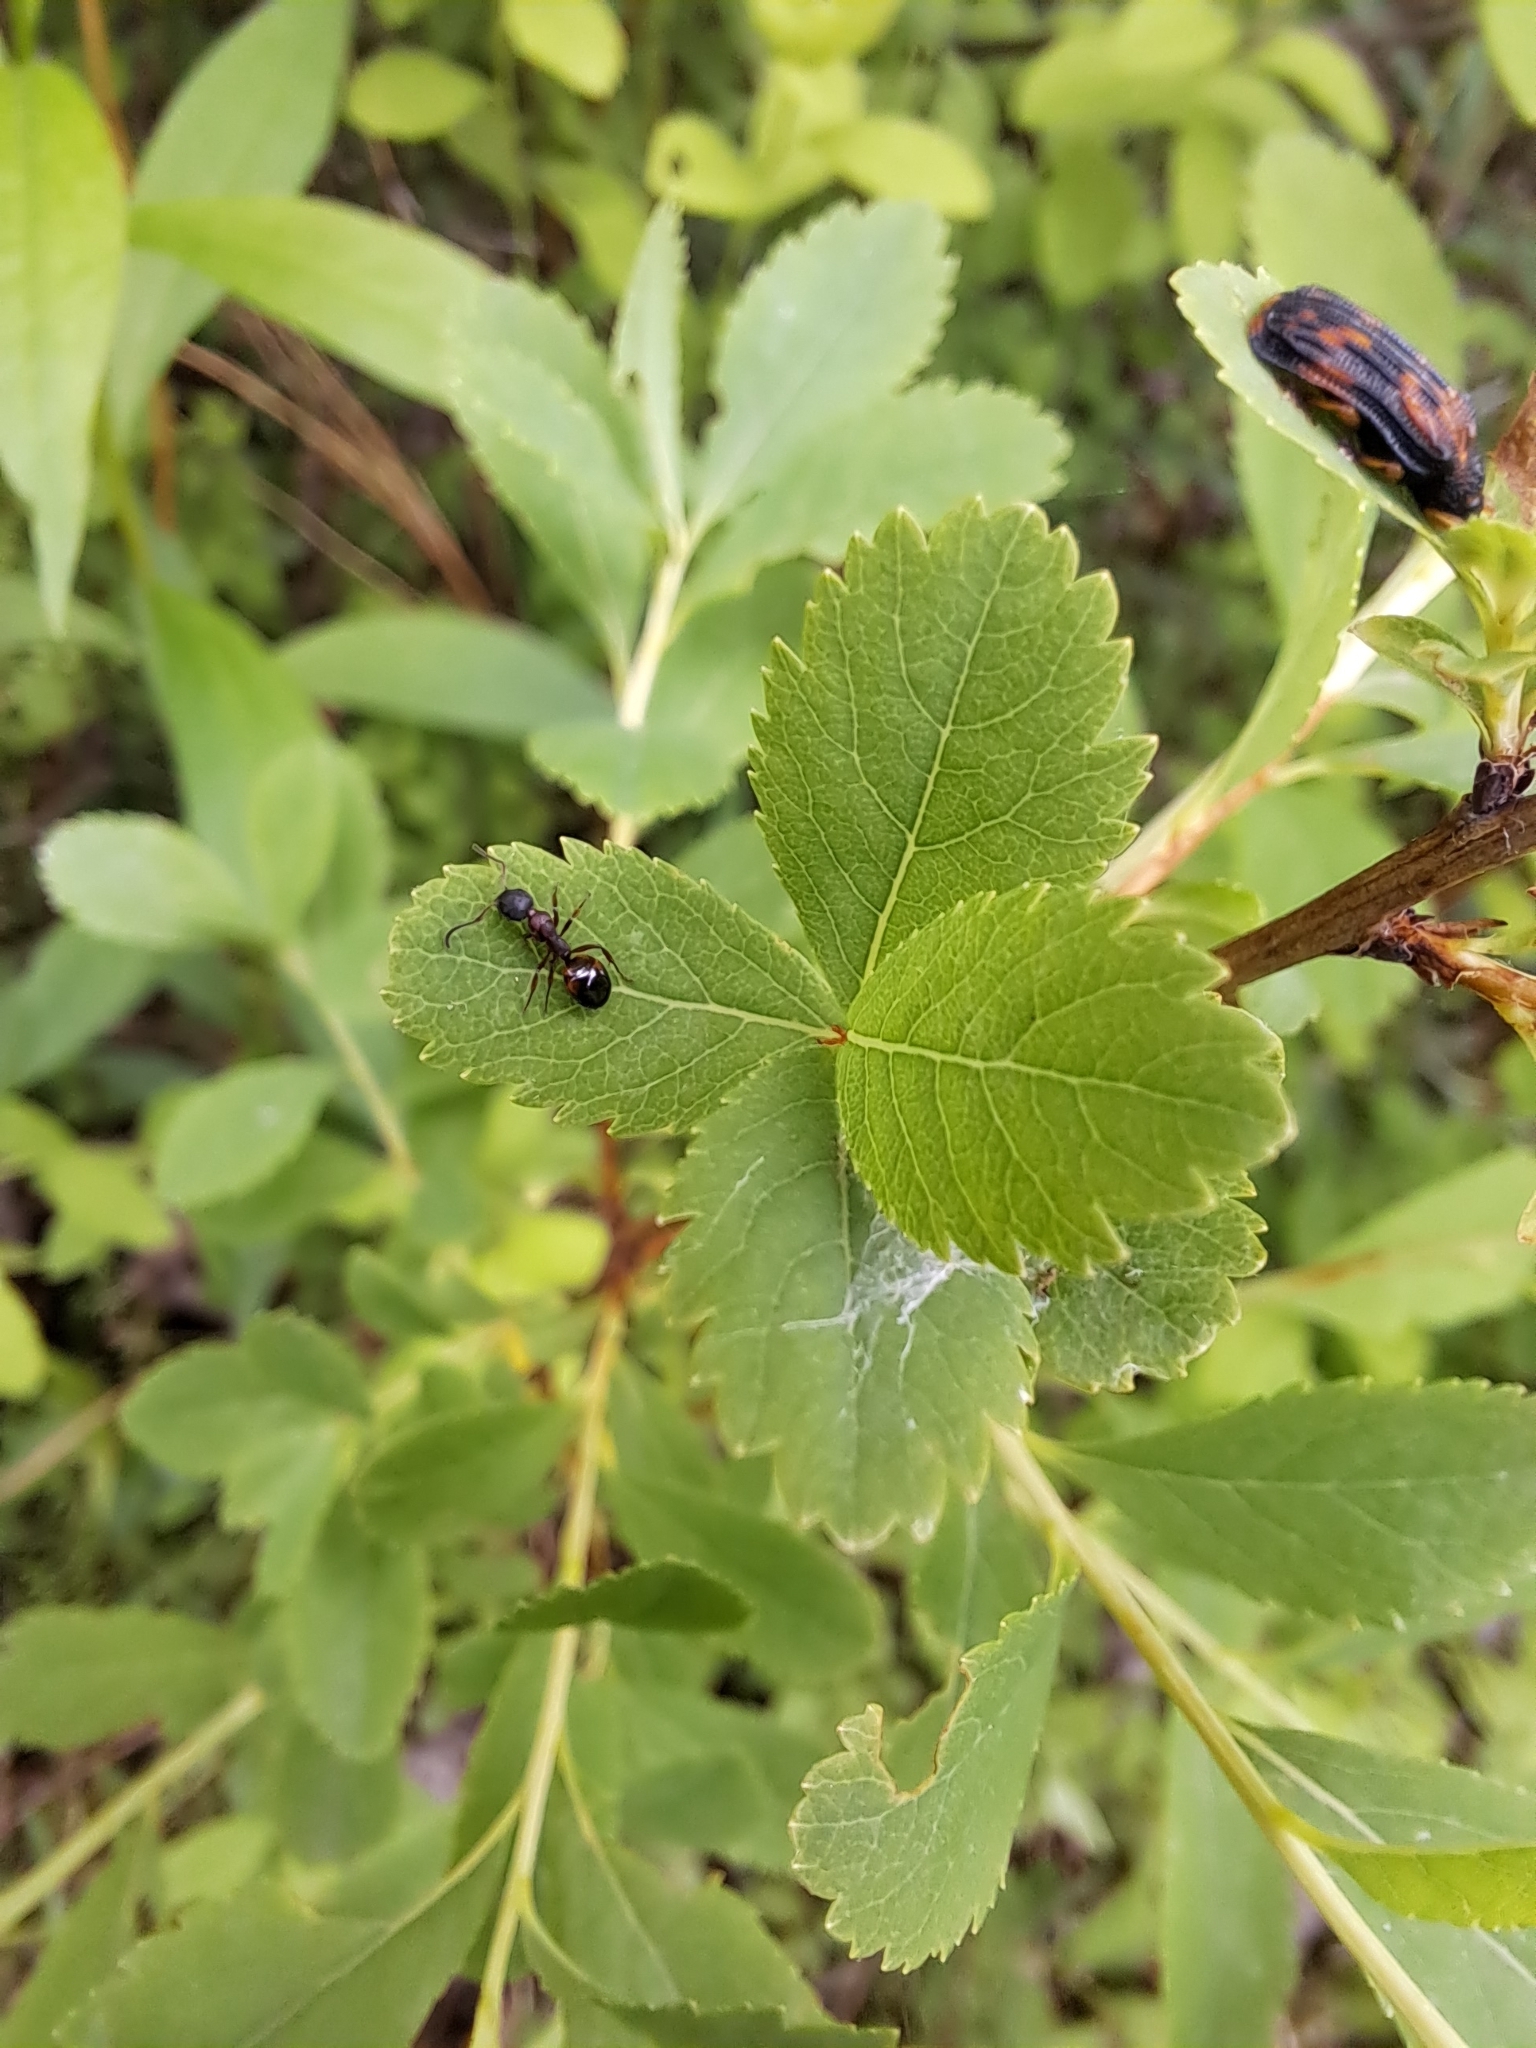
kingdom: Animalia
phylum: Arthropoda
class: Insecta
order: Hymenoptera
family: Formicidae
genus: Dolichoderus
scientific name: Dolichoderus plagiatus
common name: Mottled dolichoderus
